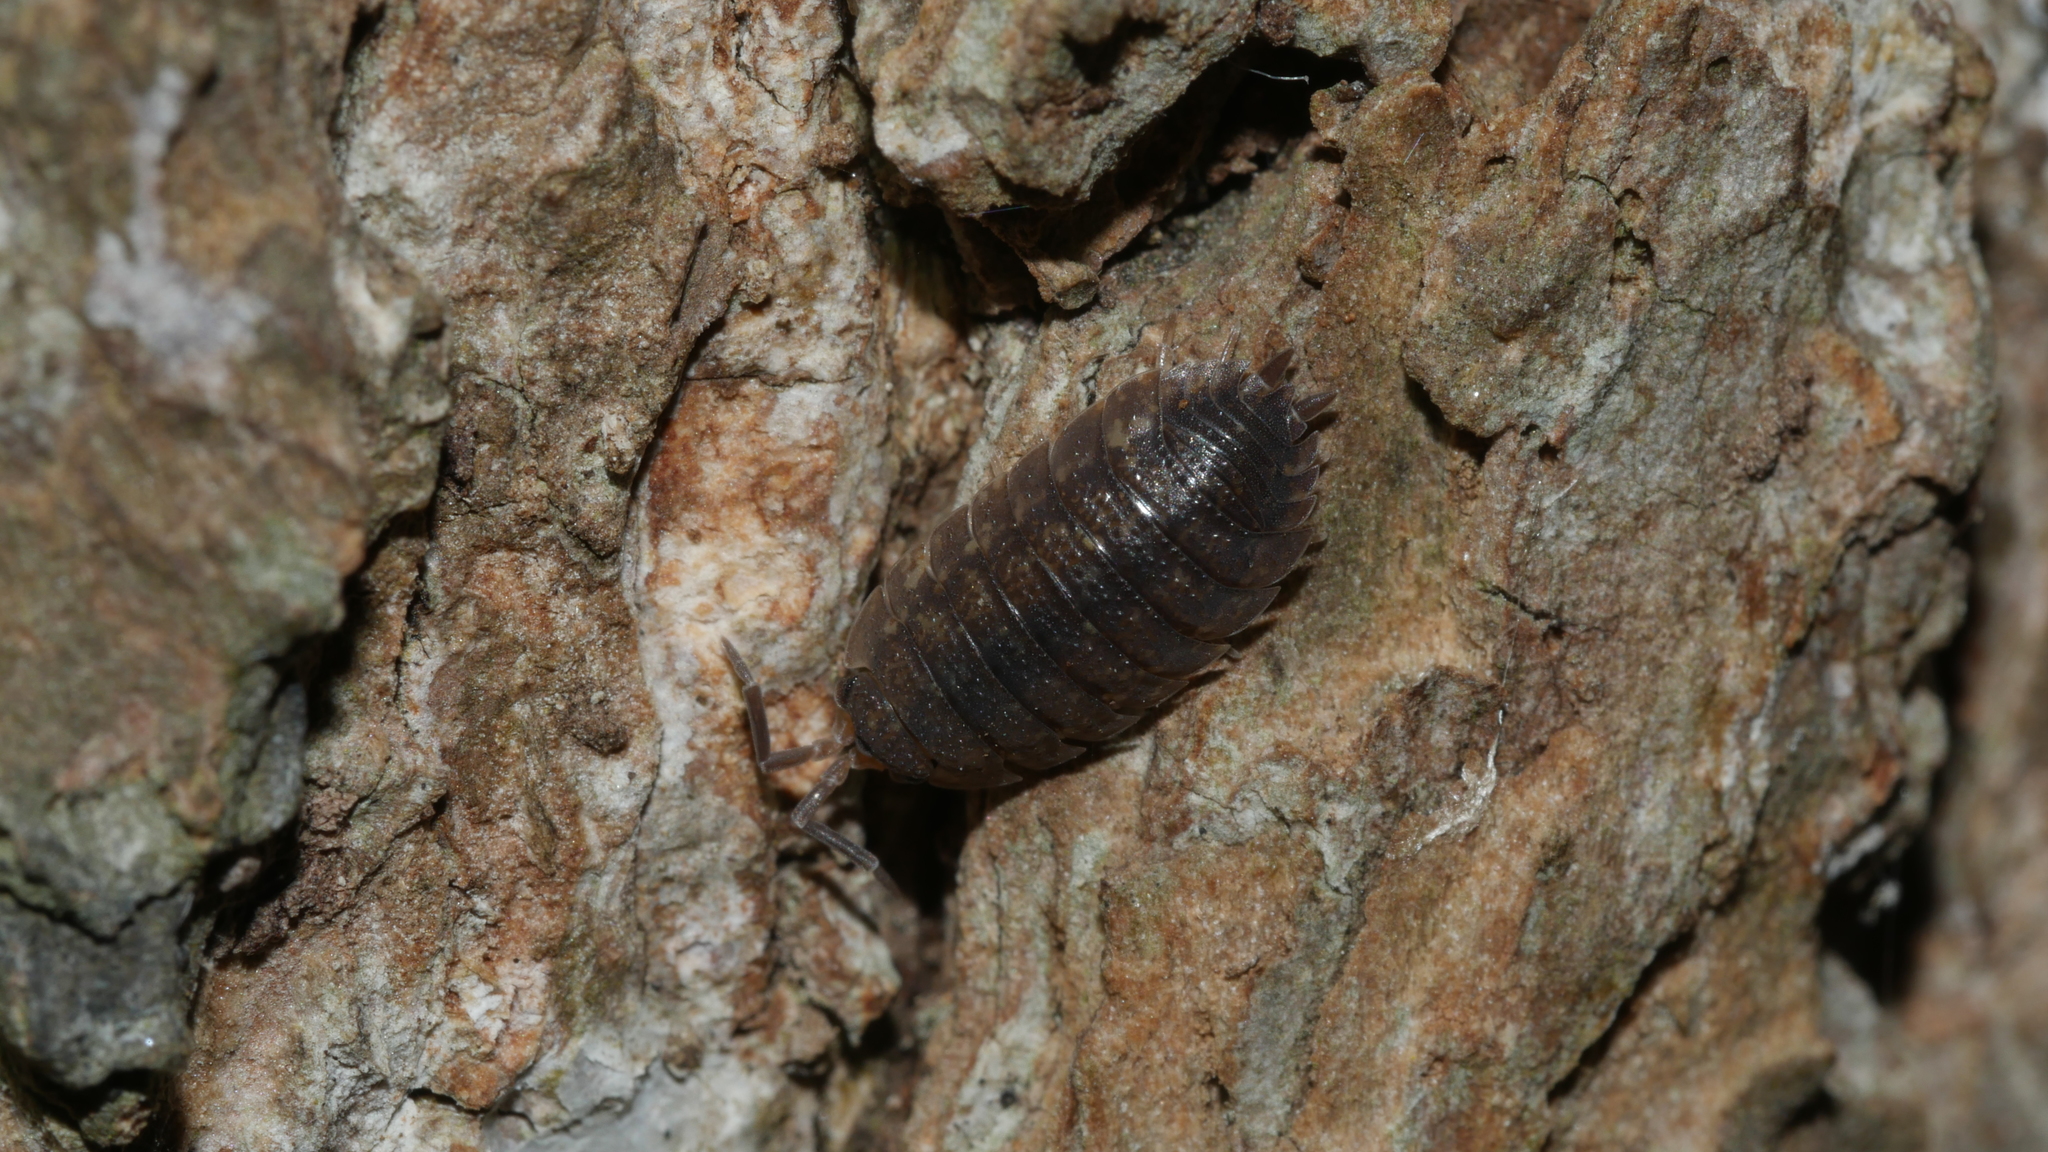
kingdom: Animalia
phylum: Arthropoda
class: Malacostraca
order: Isopoda
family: Porcellionidae
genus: Porcellio
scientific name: Porcellio scaber
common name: Common rough woodlouse
